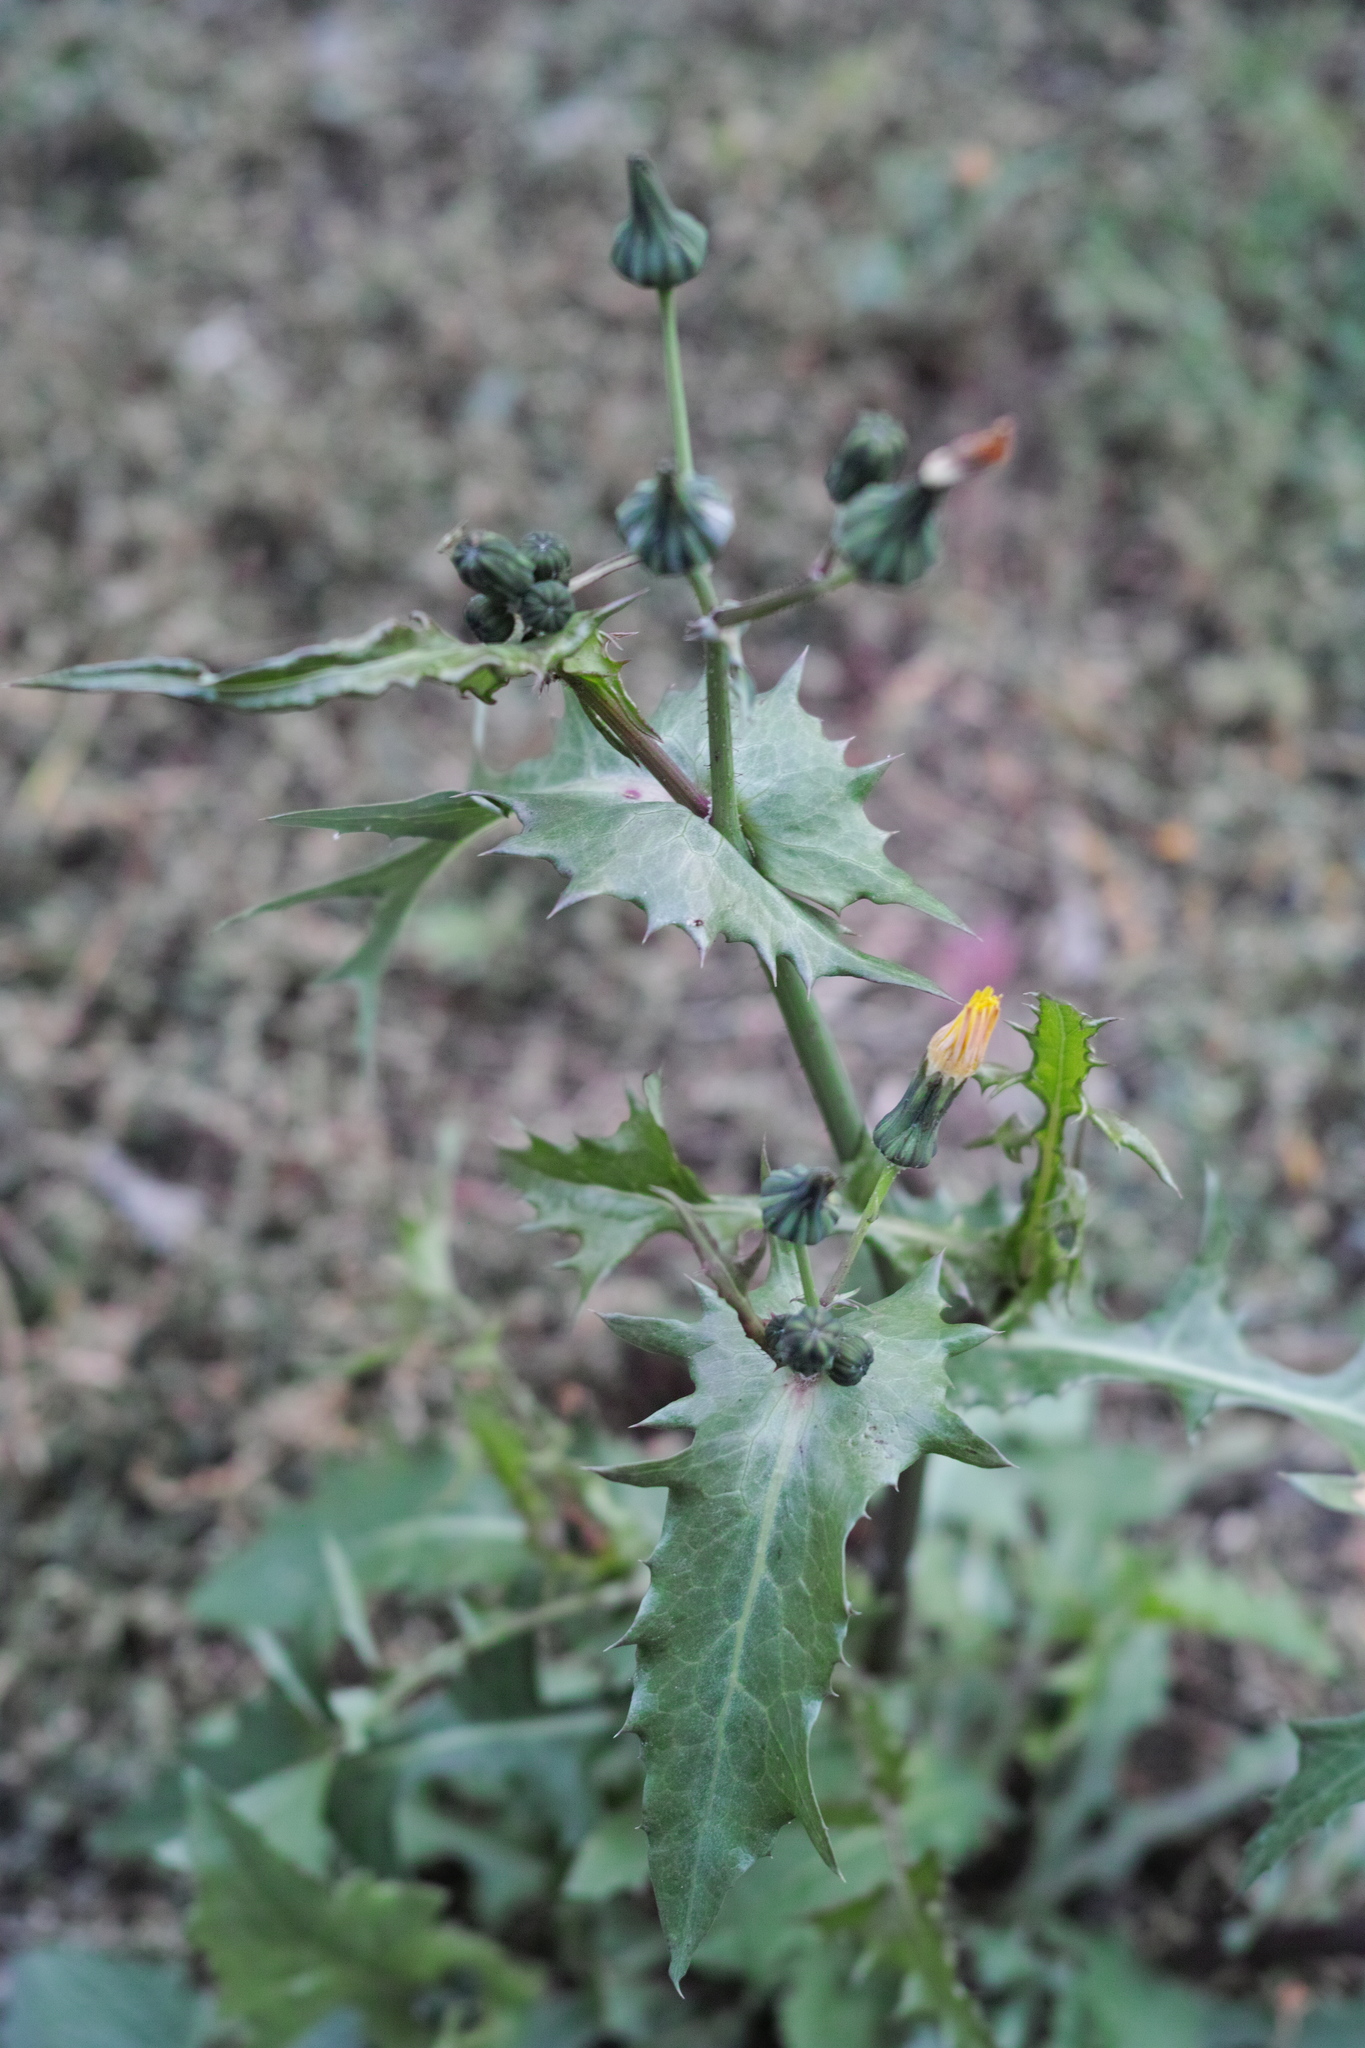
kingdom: Plantae
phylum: Tracheophyta
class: Magnoliopsida
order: Asterales
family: Asteraceae
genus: Sonchus
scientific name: Sonchus oleraceus
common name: Common sowthistle
